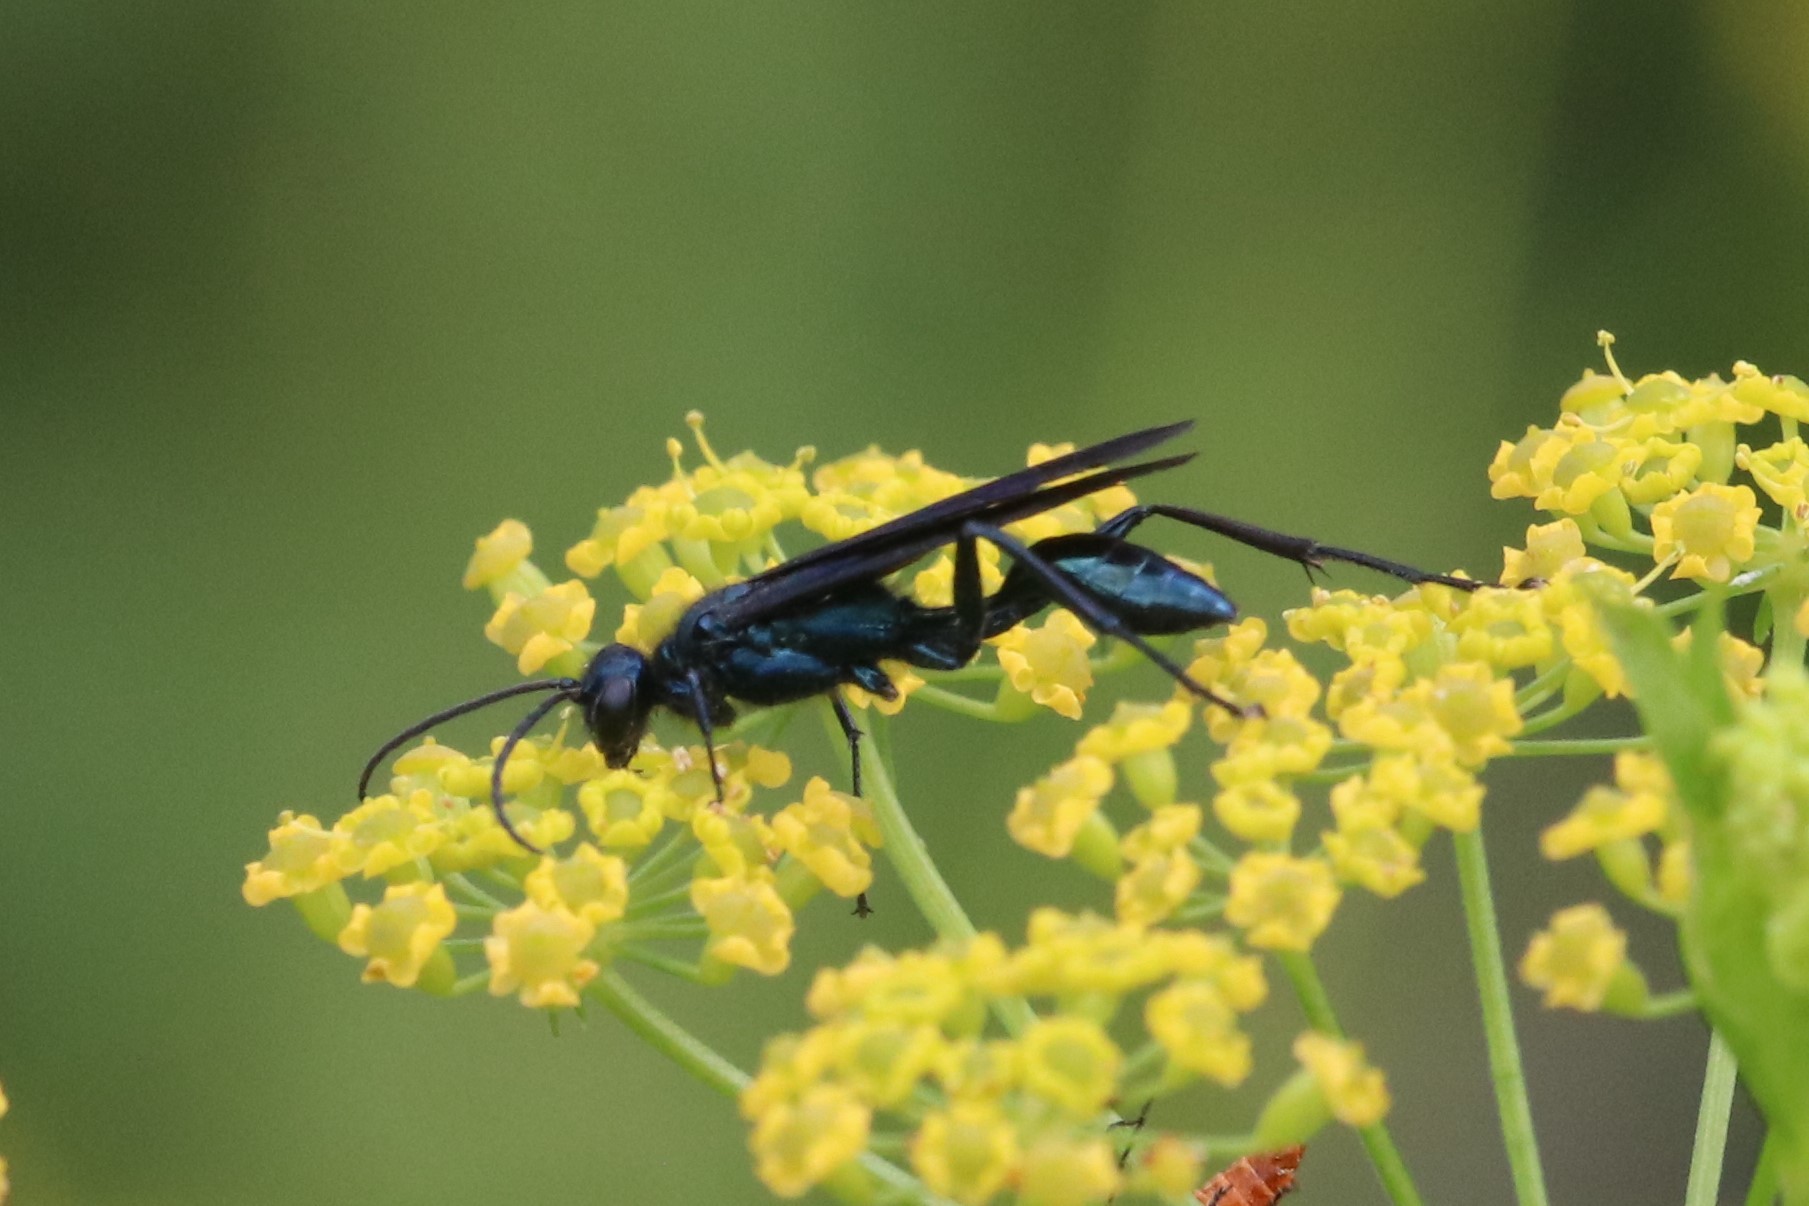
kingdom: Animalia
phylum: Arthropoda
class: Insecta
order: Hymenoptera
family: Sphecidae
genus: Chalybion
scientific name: Chalybion californicum
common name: Mud dauber
